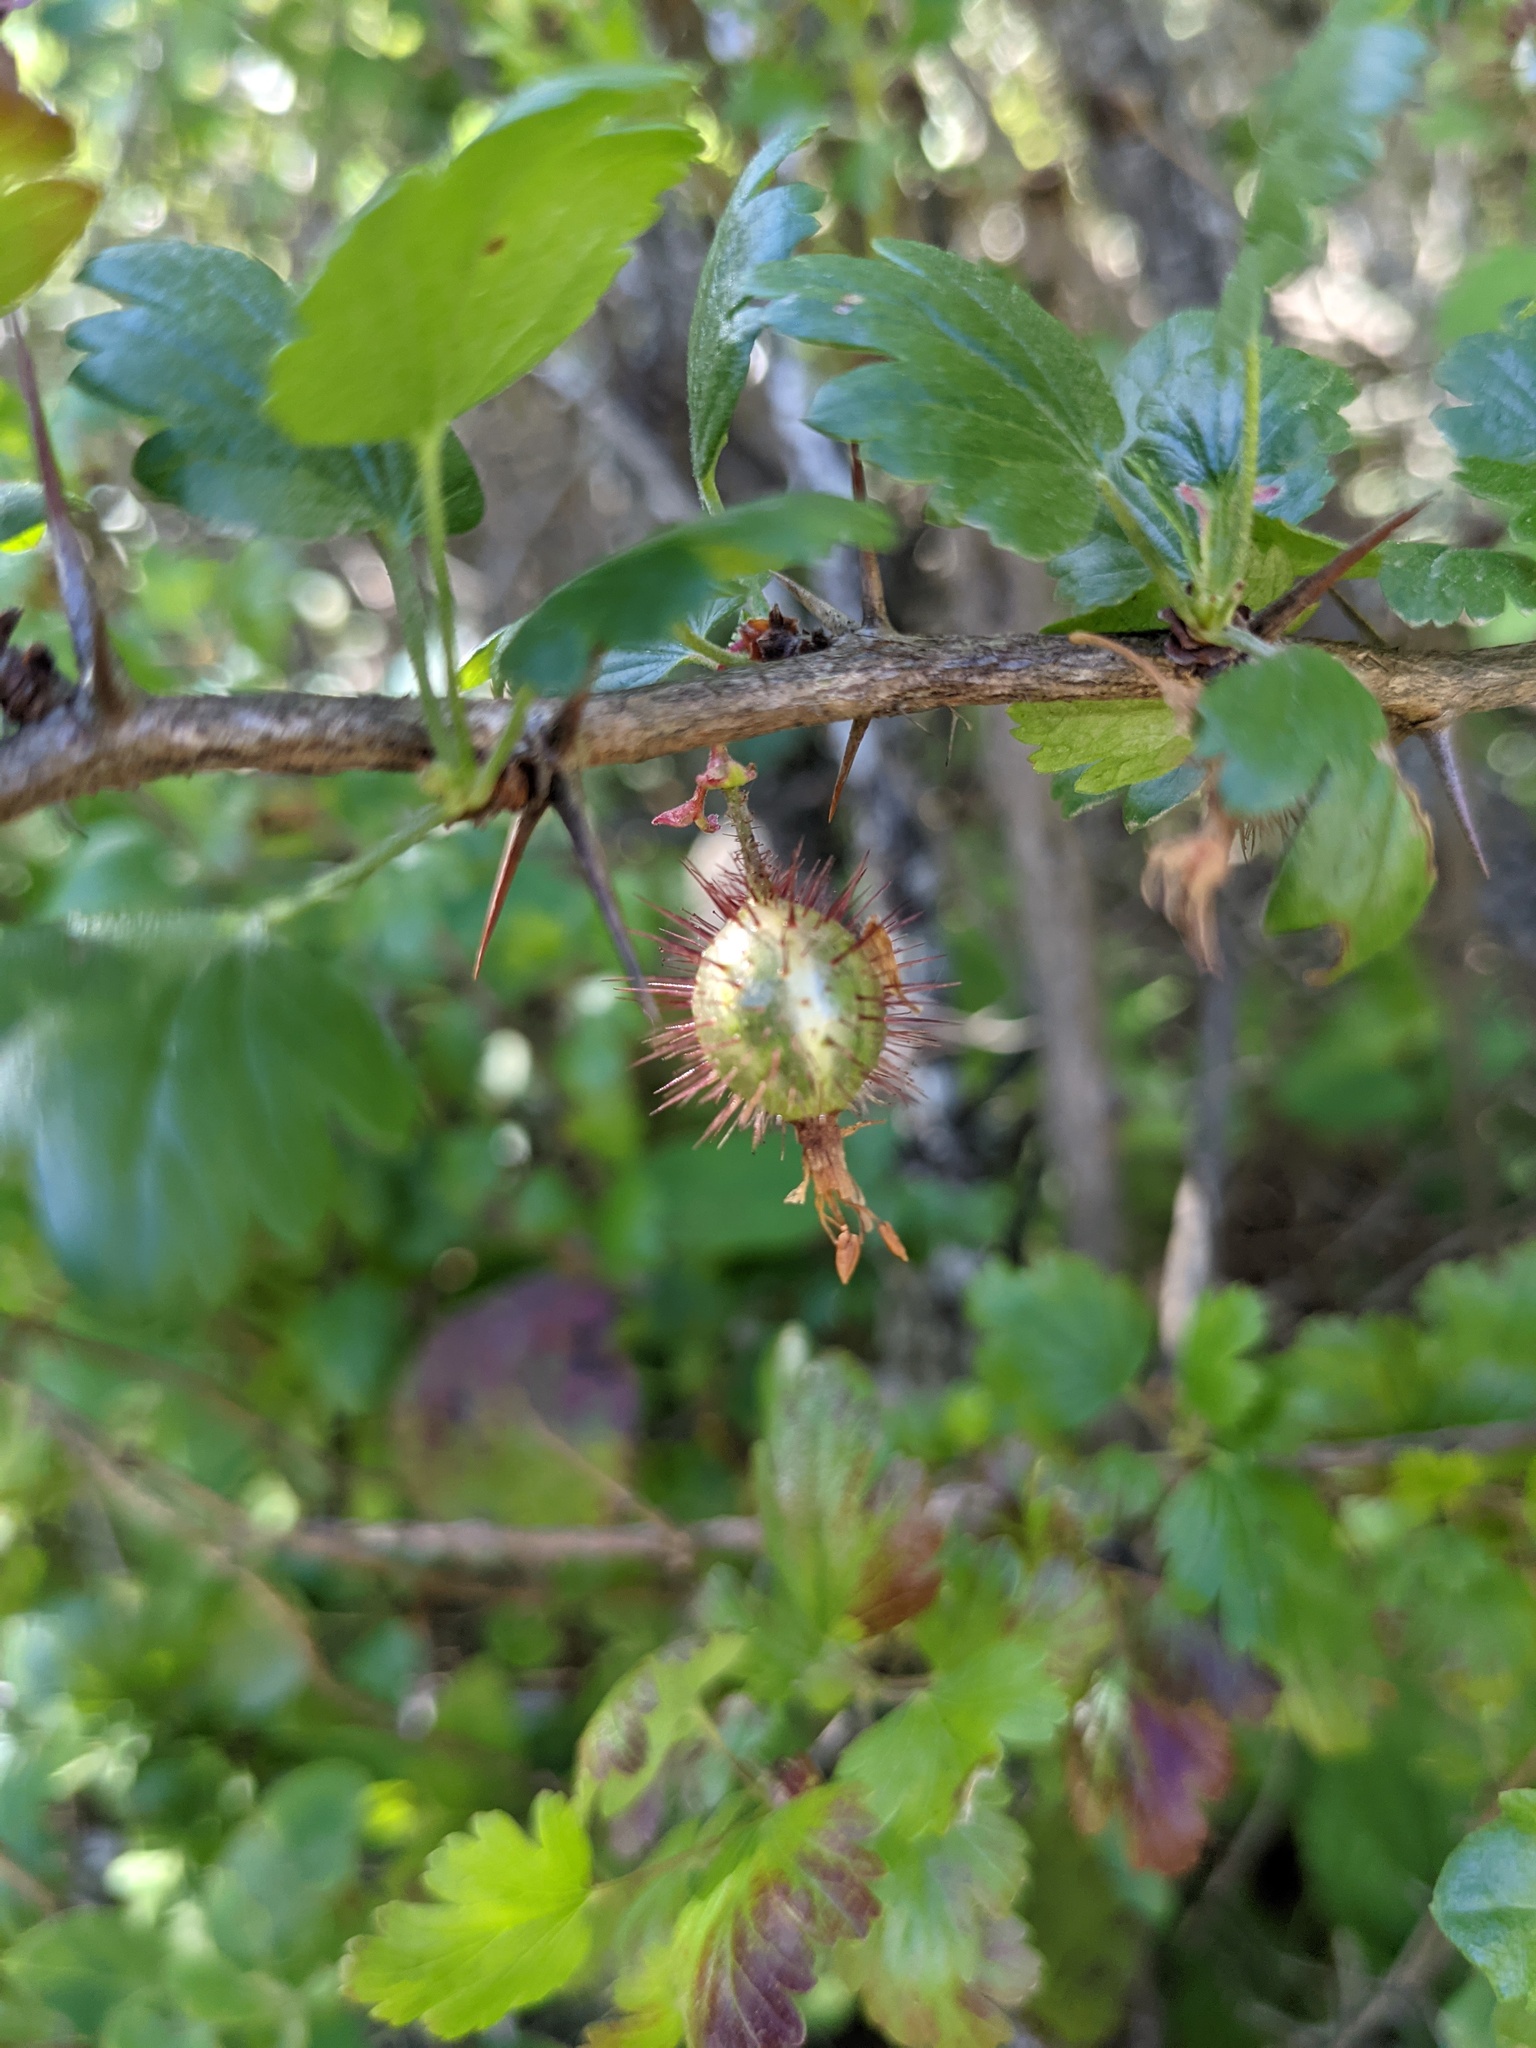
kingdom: Plantae
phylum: Tracheophyta
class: Magnoliopsida
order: Saxifragales
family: Grossulariaceae
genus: Ribes
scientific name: Ribes californicum
